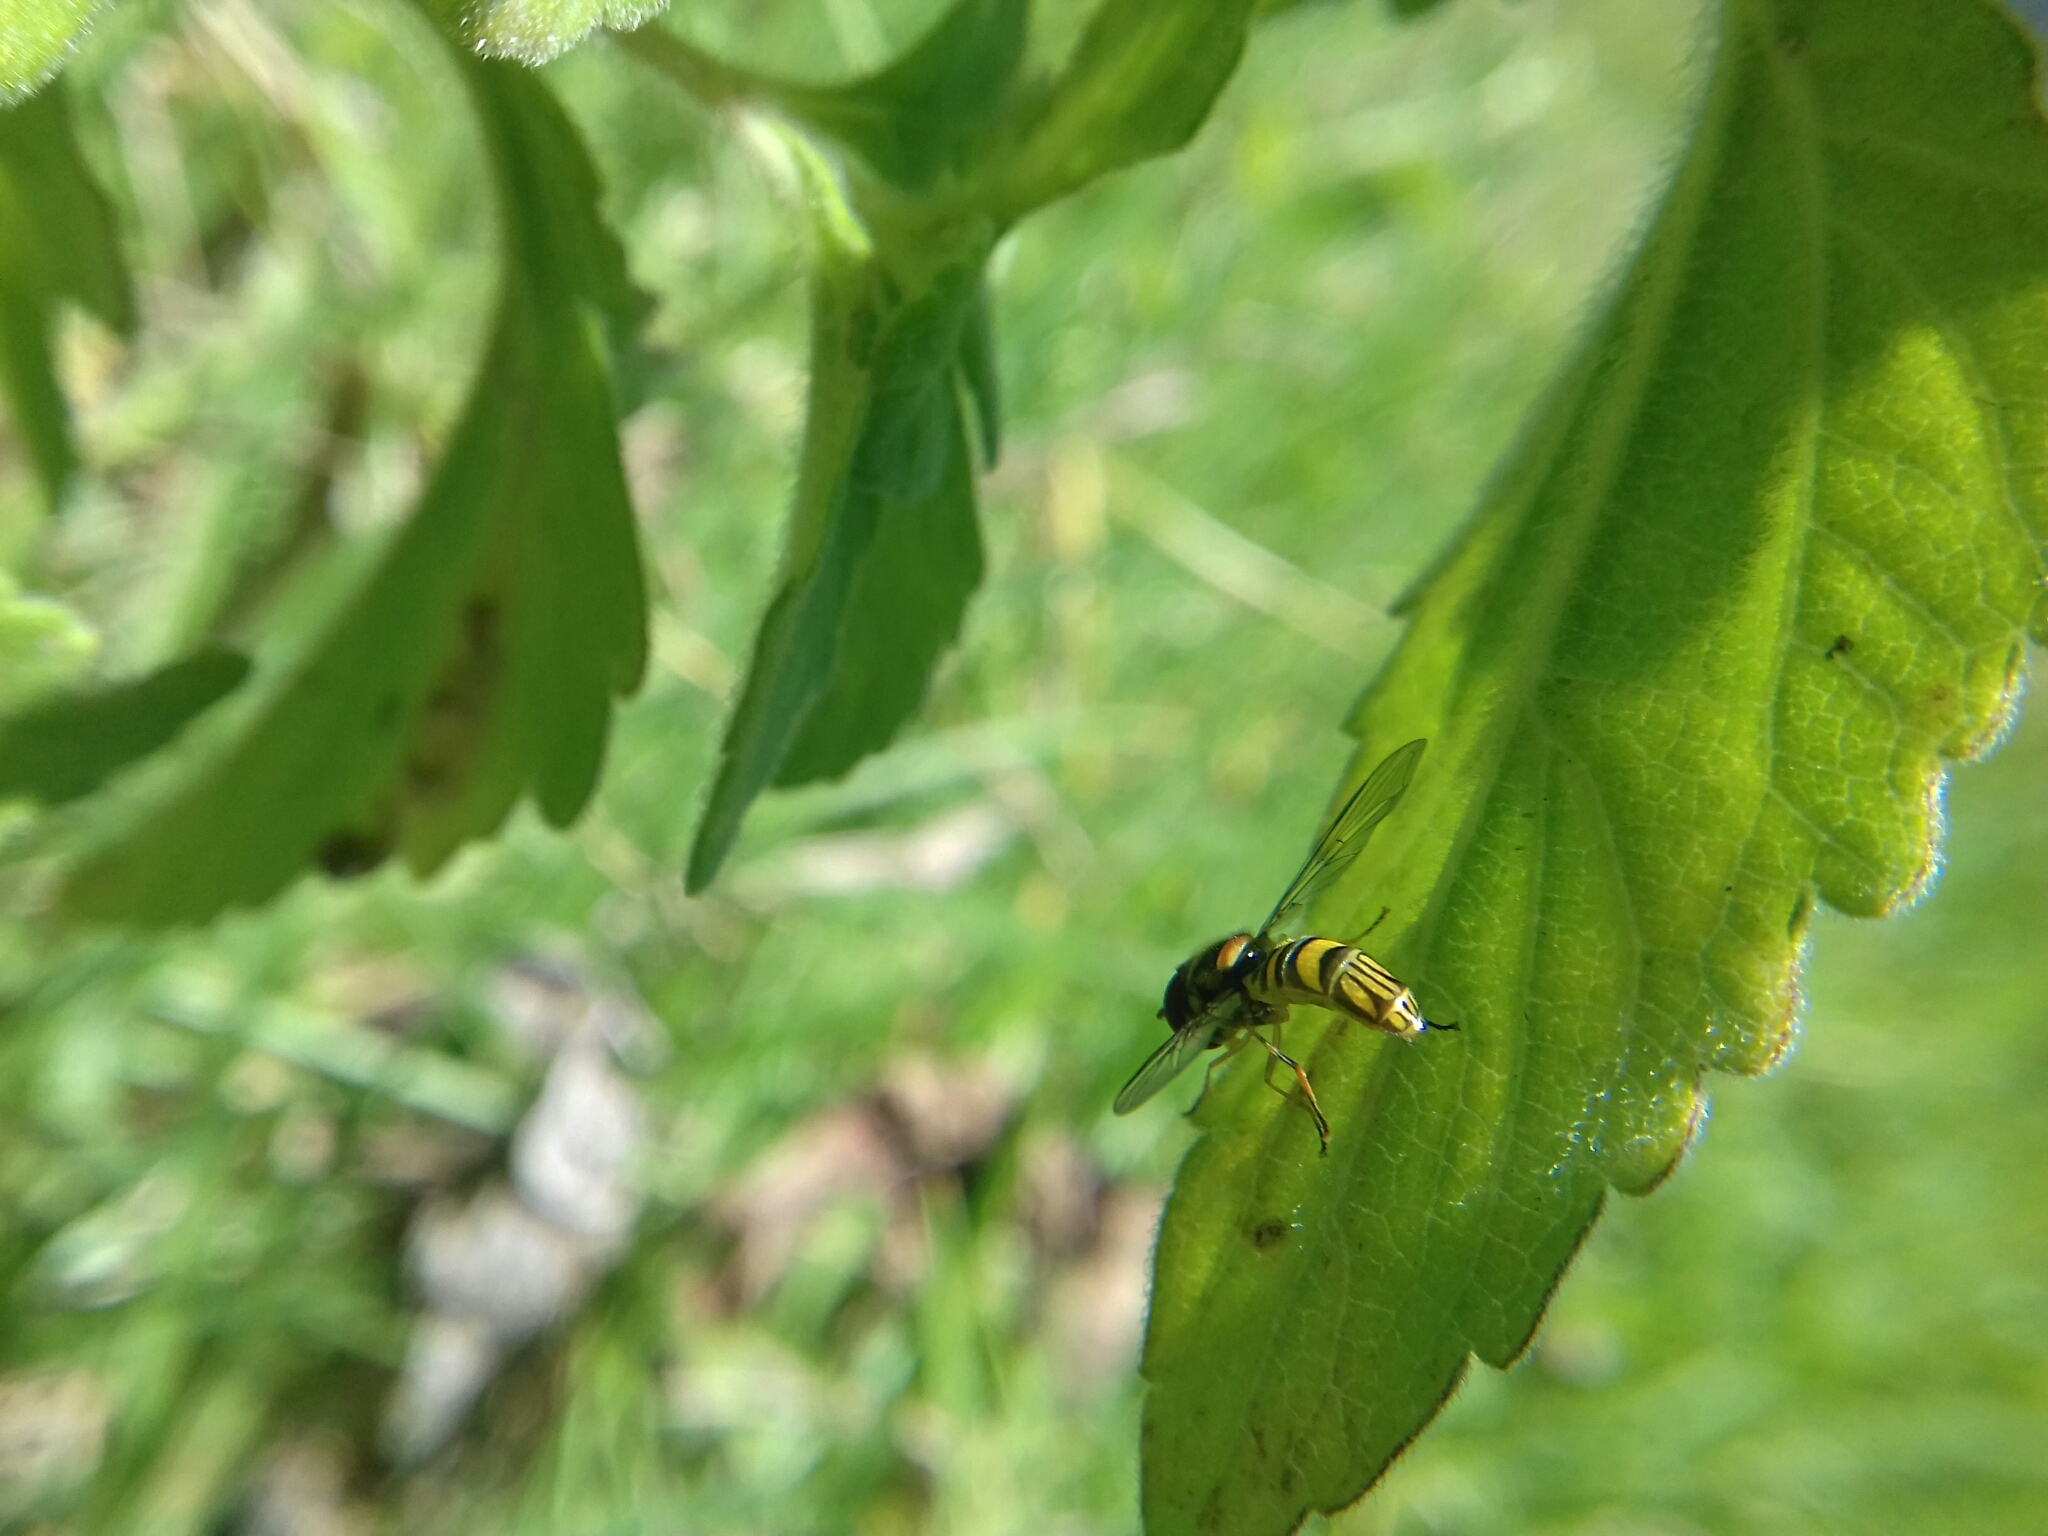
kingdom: Animalia
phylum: Arthropoda
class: Insecta
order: Diptera
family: Syrphidae
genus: Allograpta
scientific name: Allograpta obliqua
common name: Common oblique syrphid
